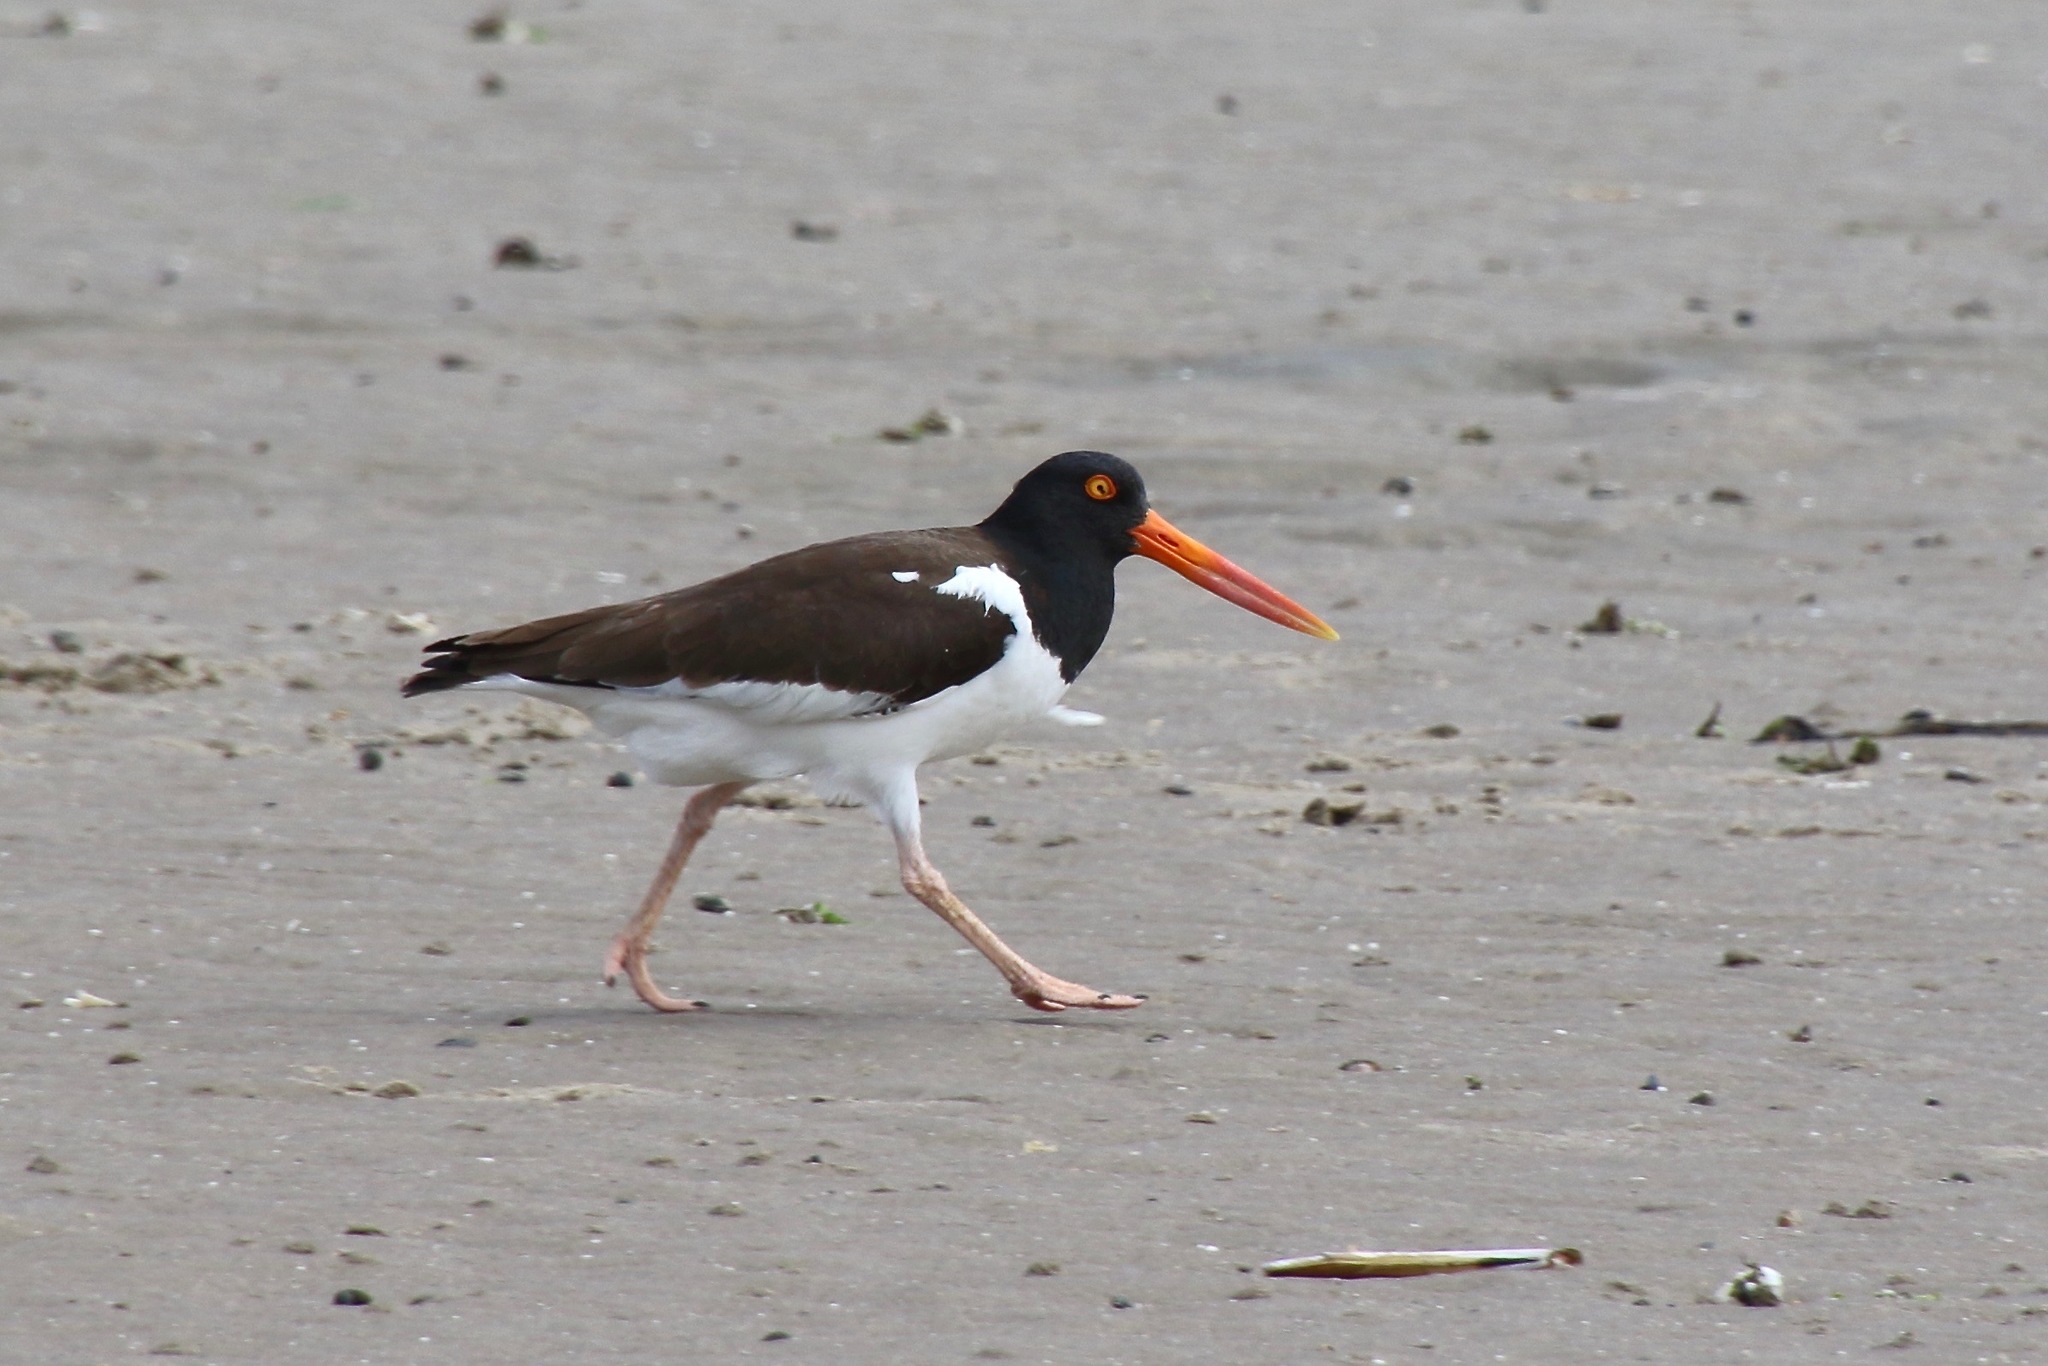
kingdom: Animalia
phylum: Chordata
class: Aves
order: Charadriiformes
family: Haematopodidae
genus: Haematopus
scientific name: Haematopus palliatus
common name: American oystercatcher
